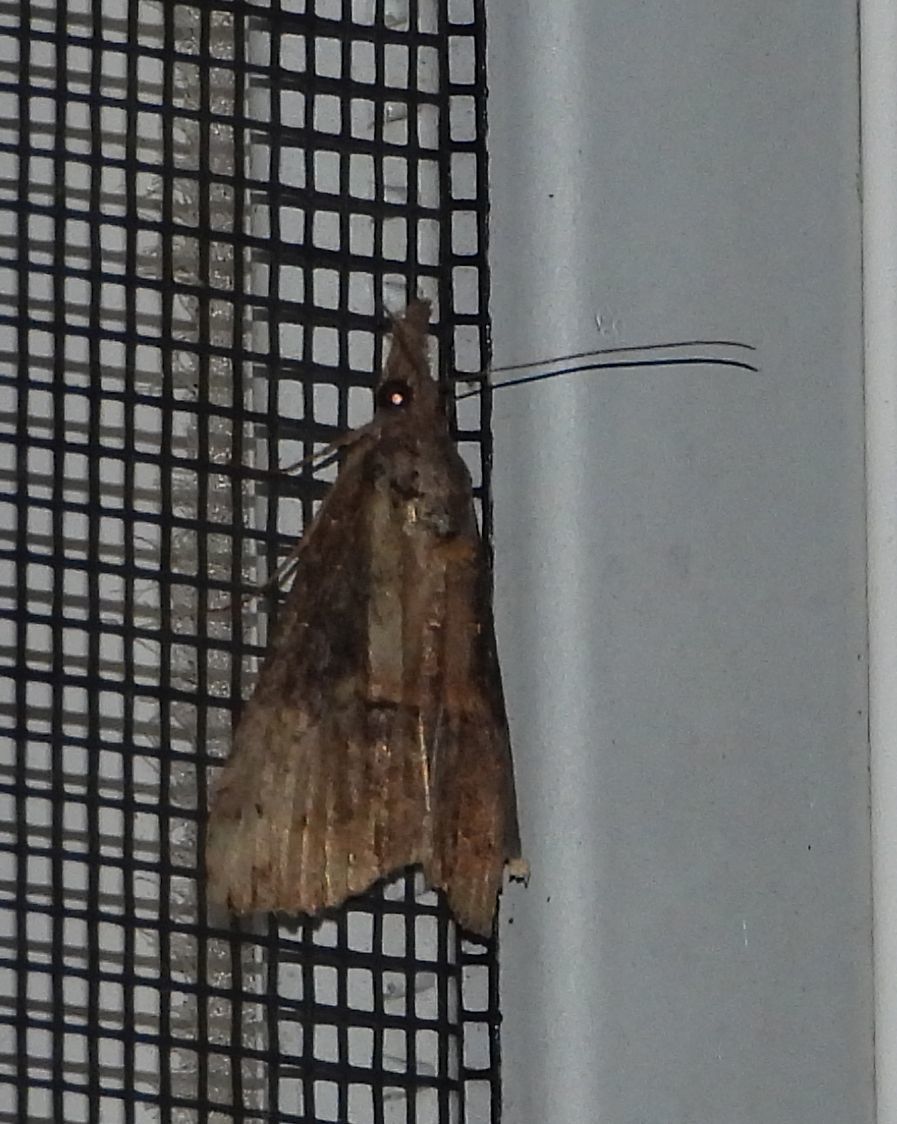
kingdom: Animalia
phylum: Arthropoda
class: Insecta
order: Lepidoptera
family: Erebidae
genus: Hypena
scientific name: Hypena scabra
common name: Green cloverworm
